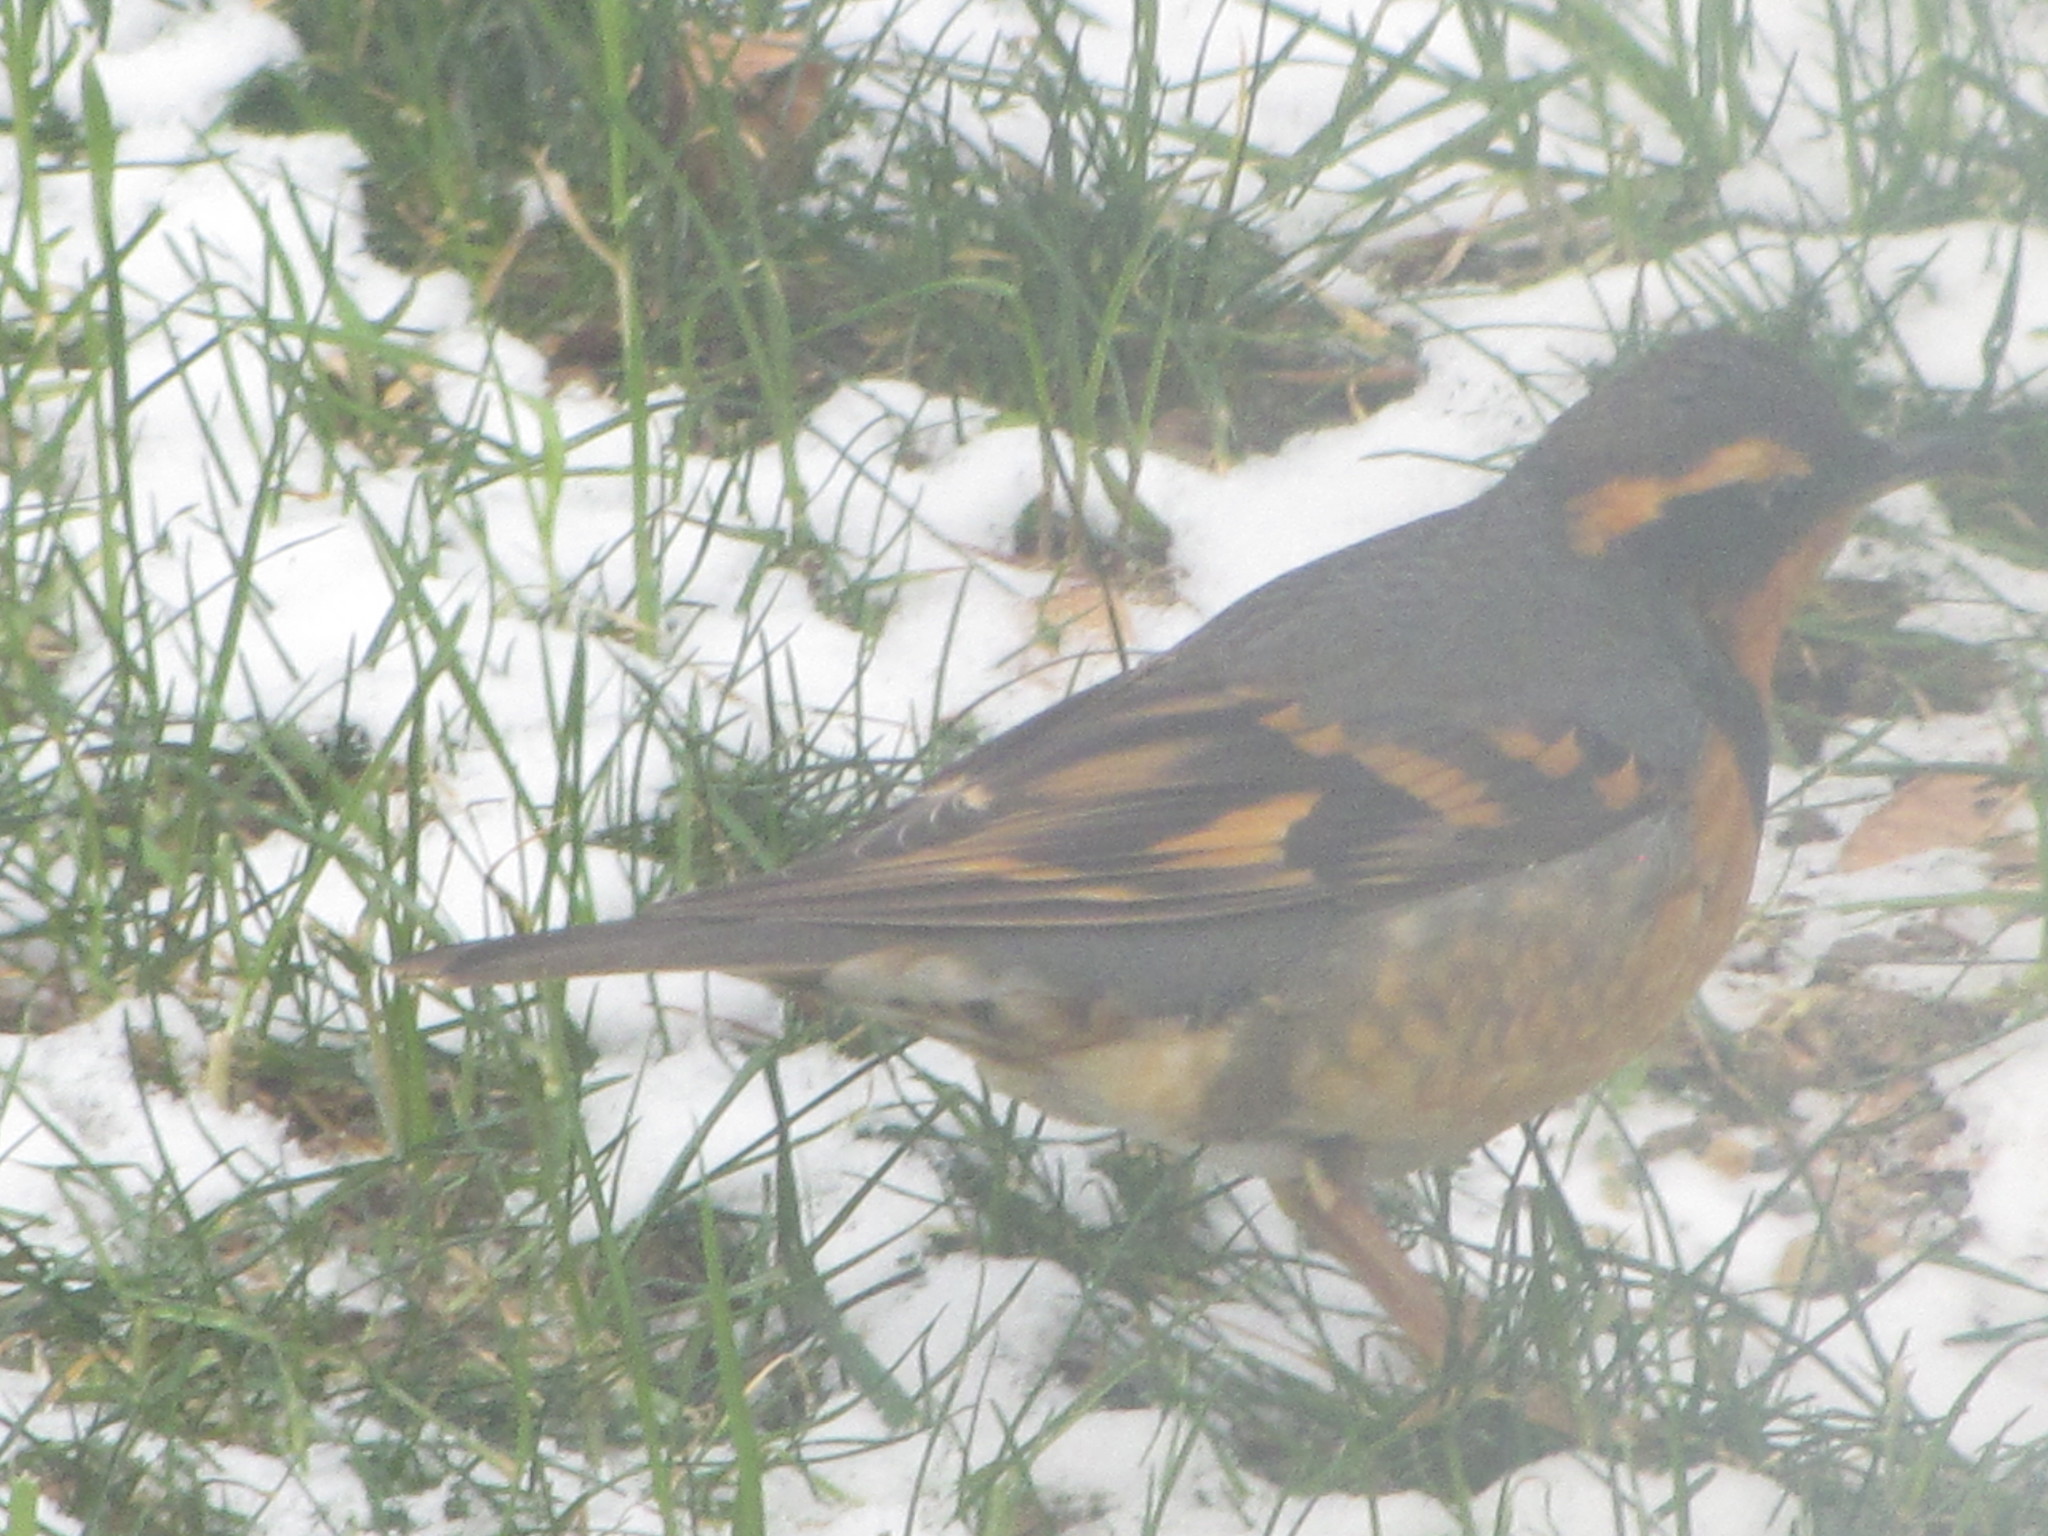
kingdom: Animalia
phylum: Chordata
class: Aves
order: Passeriformes
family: Turdidae
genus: Ixoreus
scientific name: Ixoreus naevius
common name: Varied thrush
